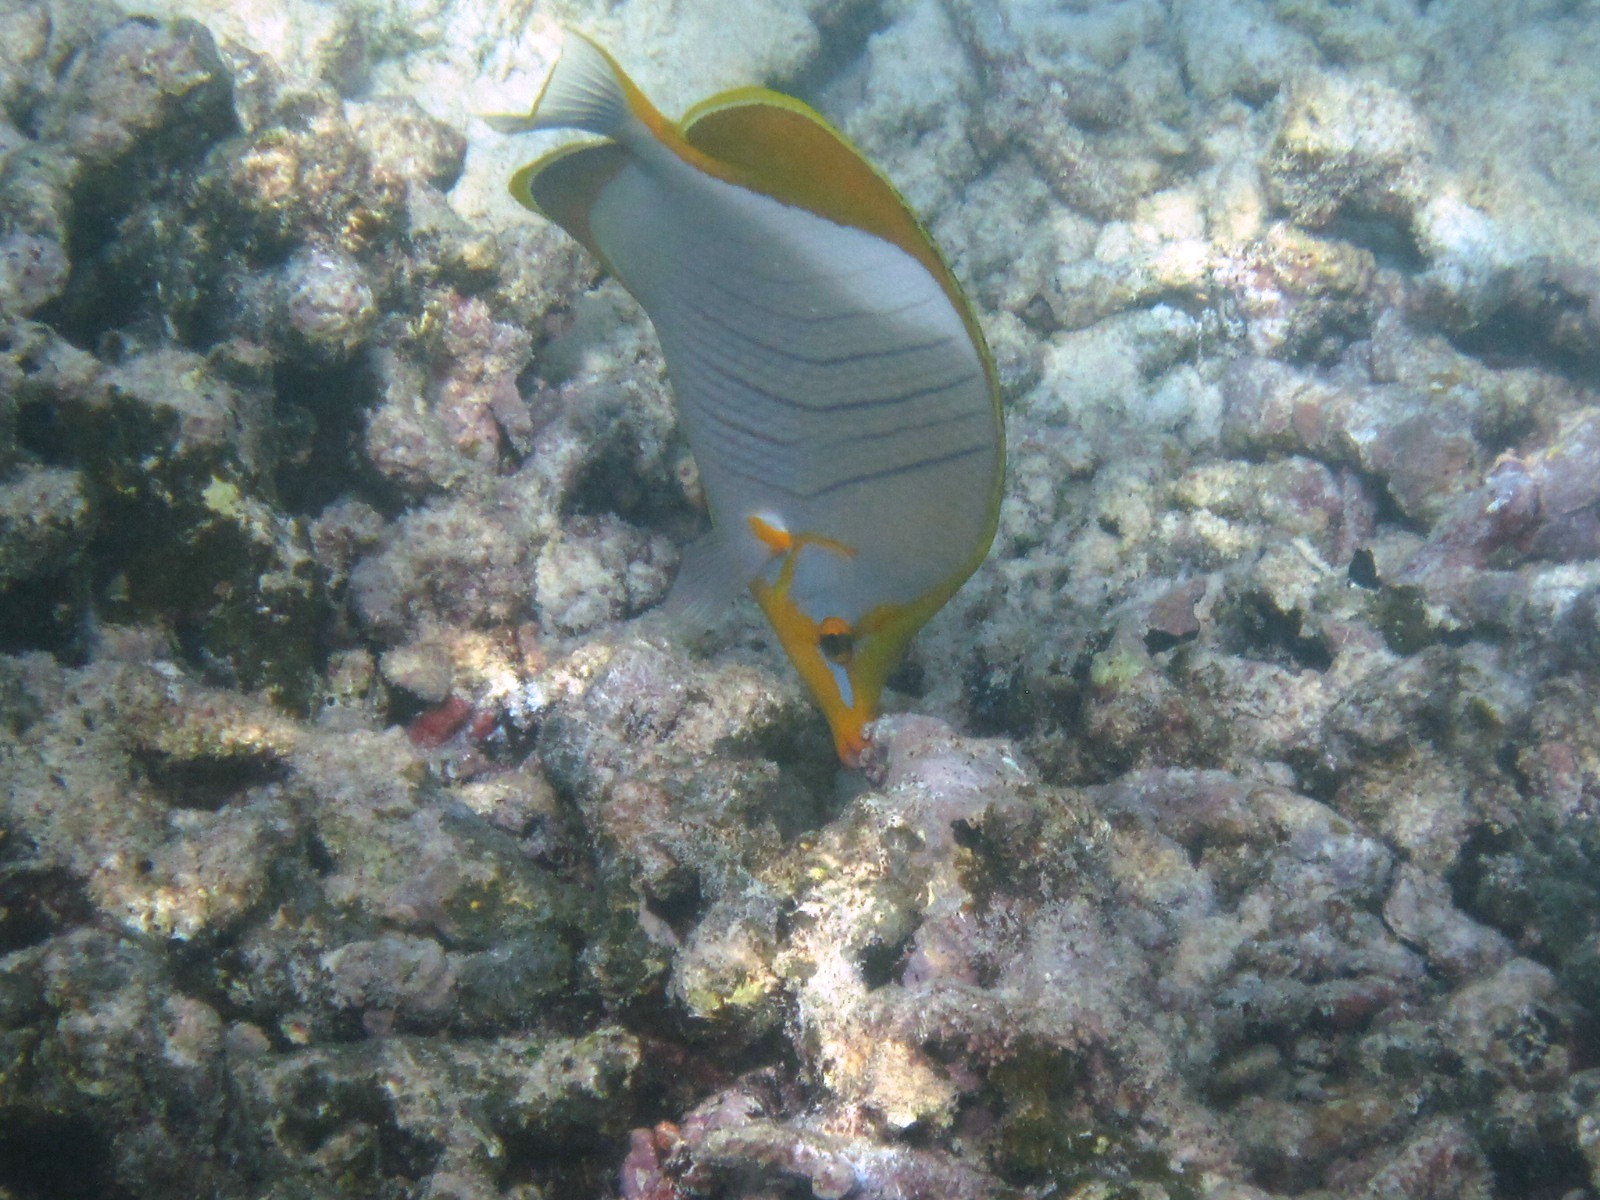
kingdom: Animalia
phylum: Chordata
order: Perciformes
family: Chaetodontidae
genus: Chaetodon
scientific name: Chaetodon xanthocephalus
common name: Yellowhead butterflyfish
